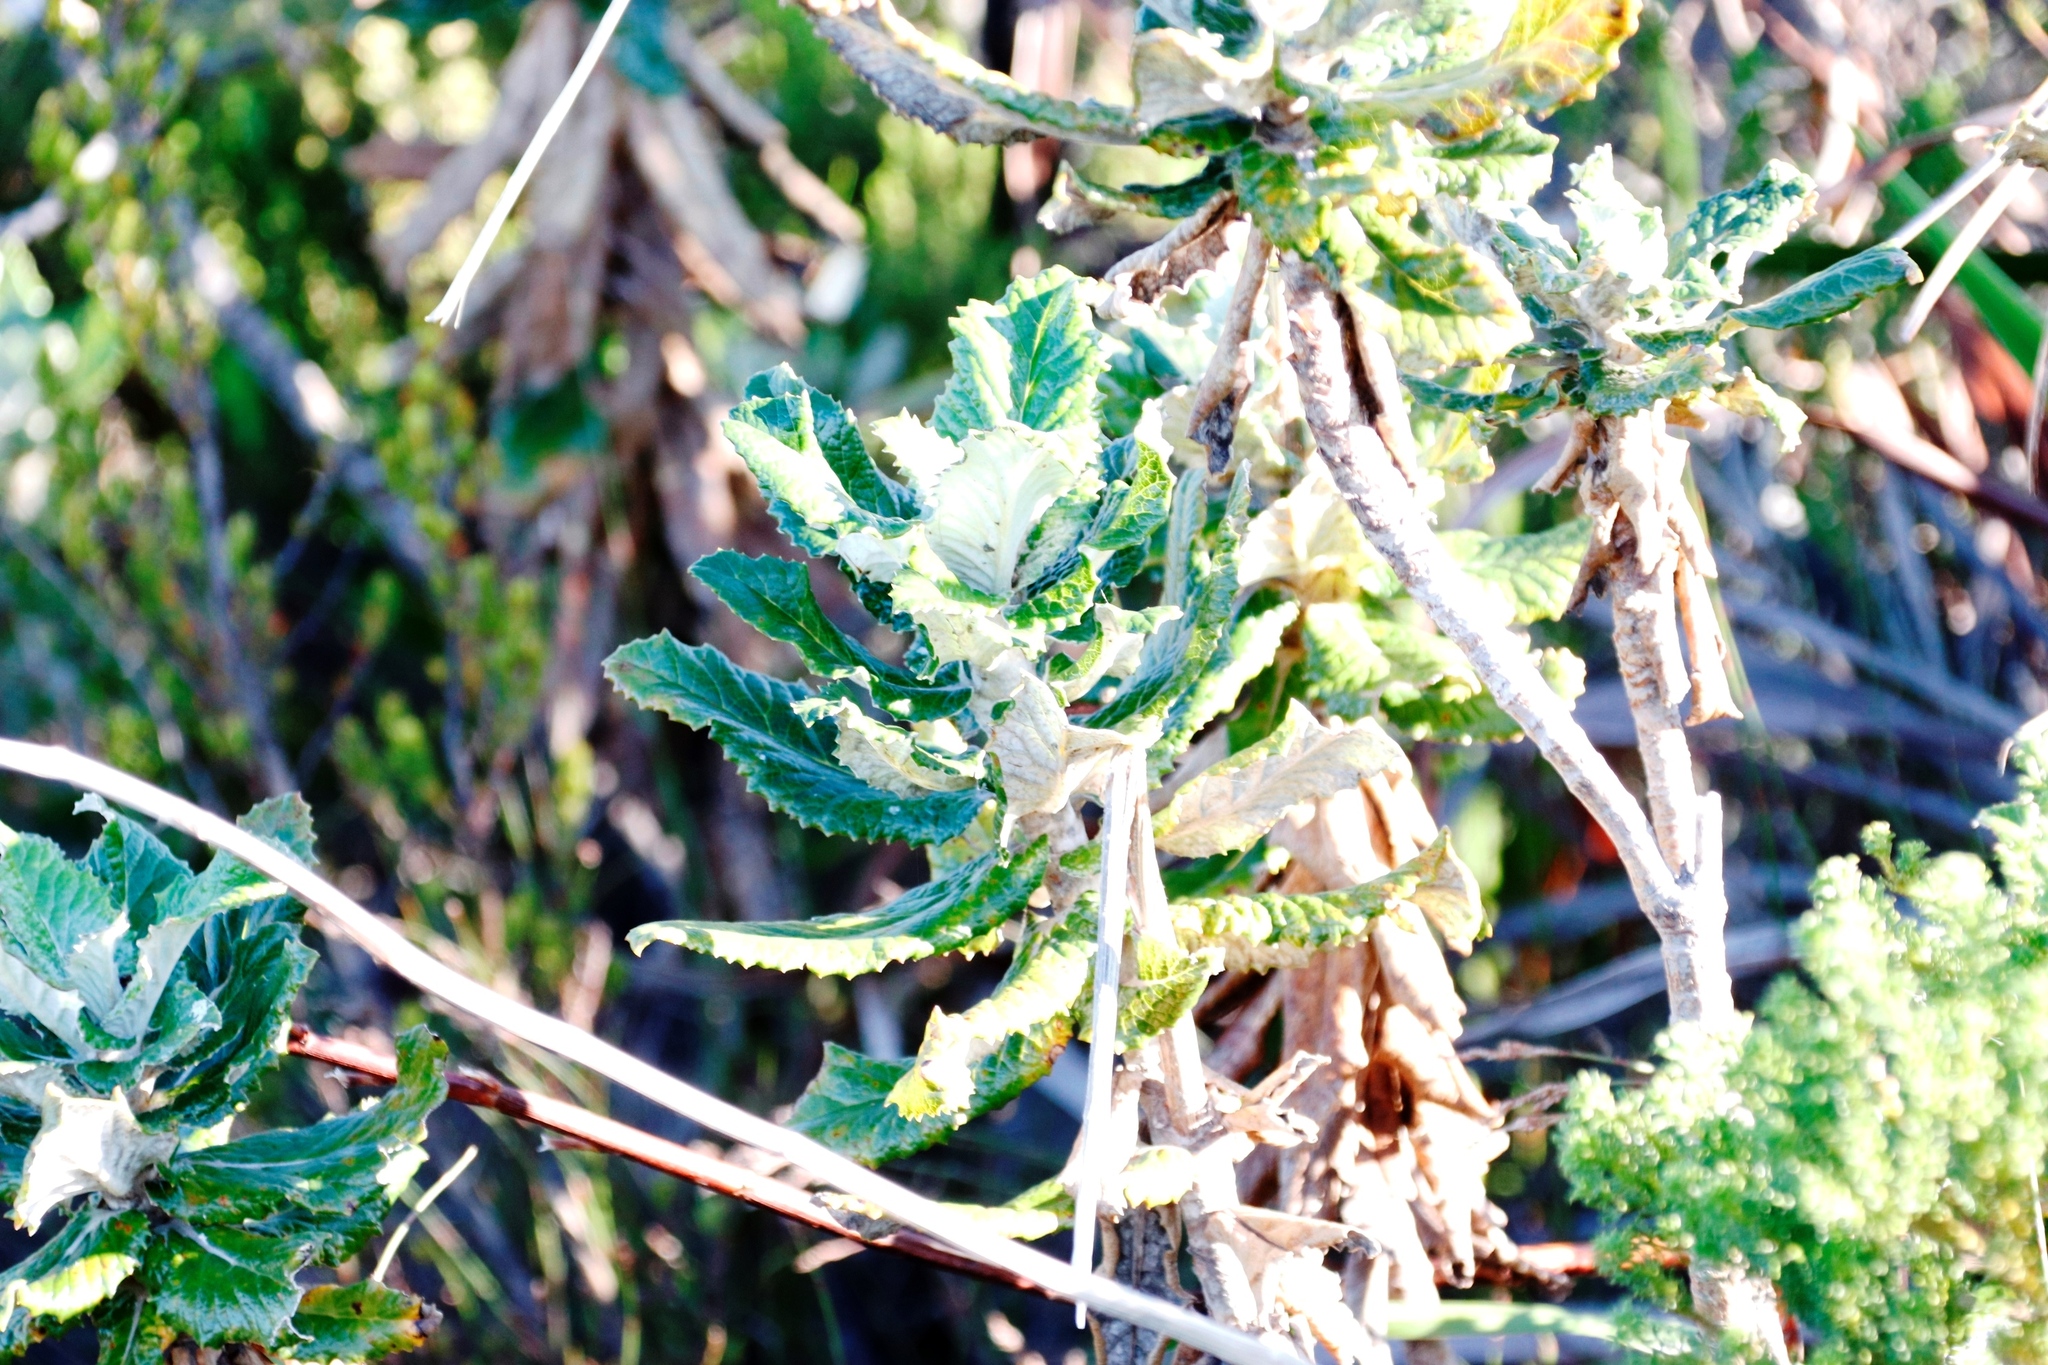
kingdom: Plantae
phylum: Tracheophyta
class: Magnoliopsida
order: Apiales
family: Apiaceae
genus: Hermas
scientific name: Hermas villosa
